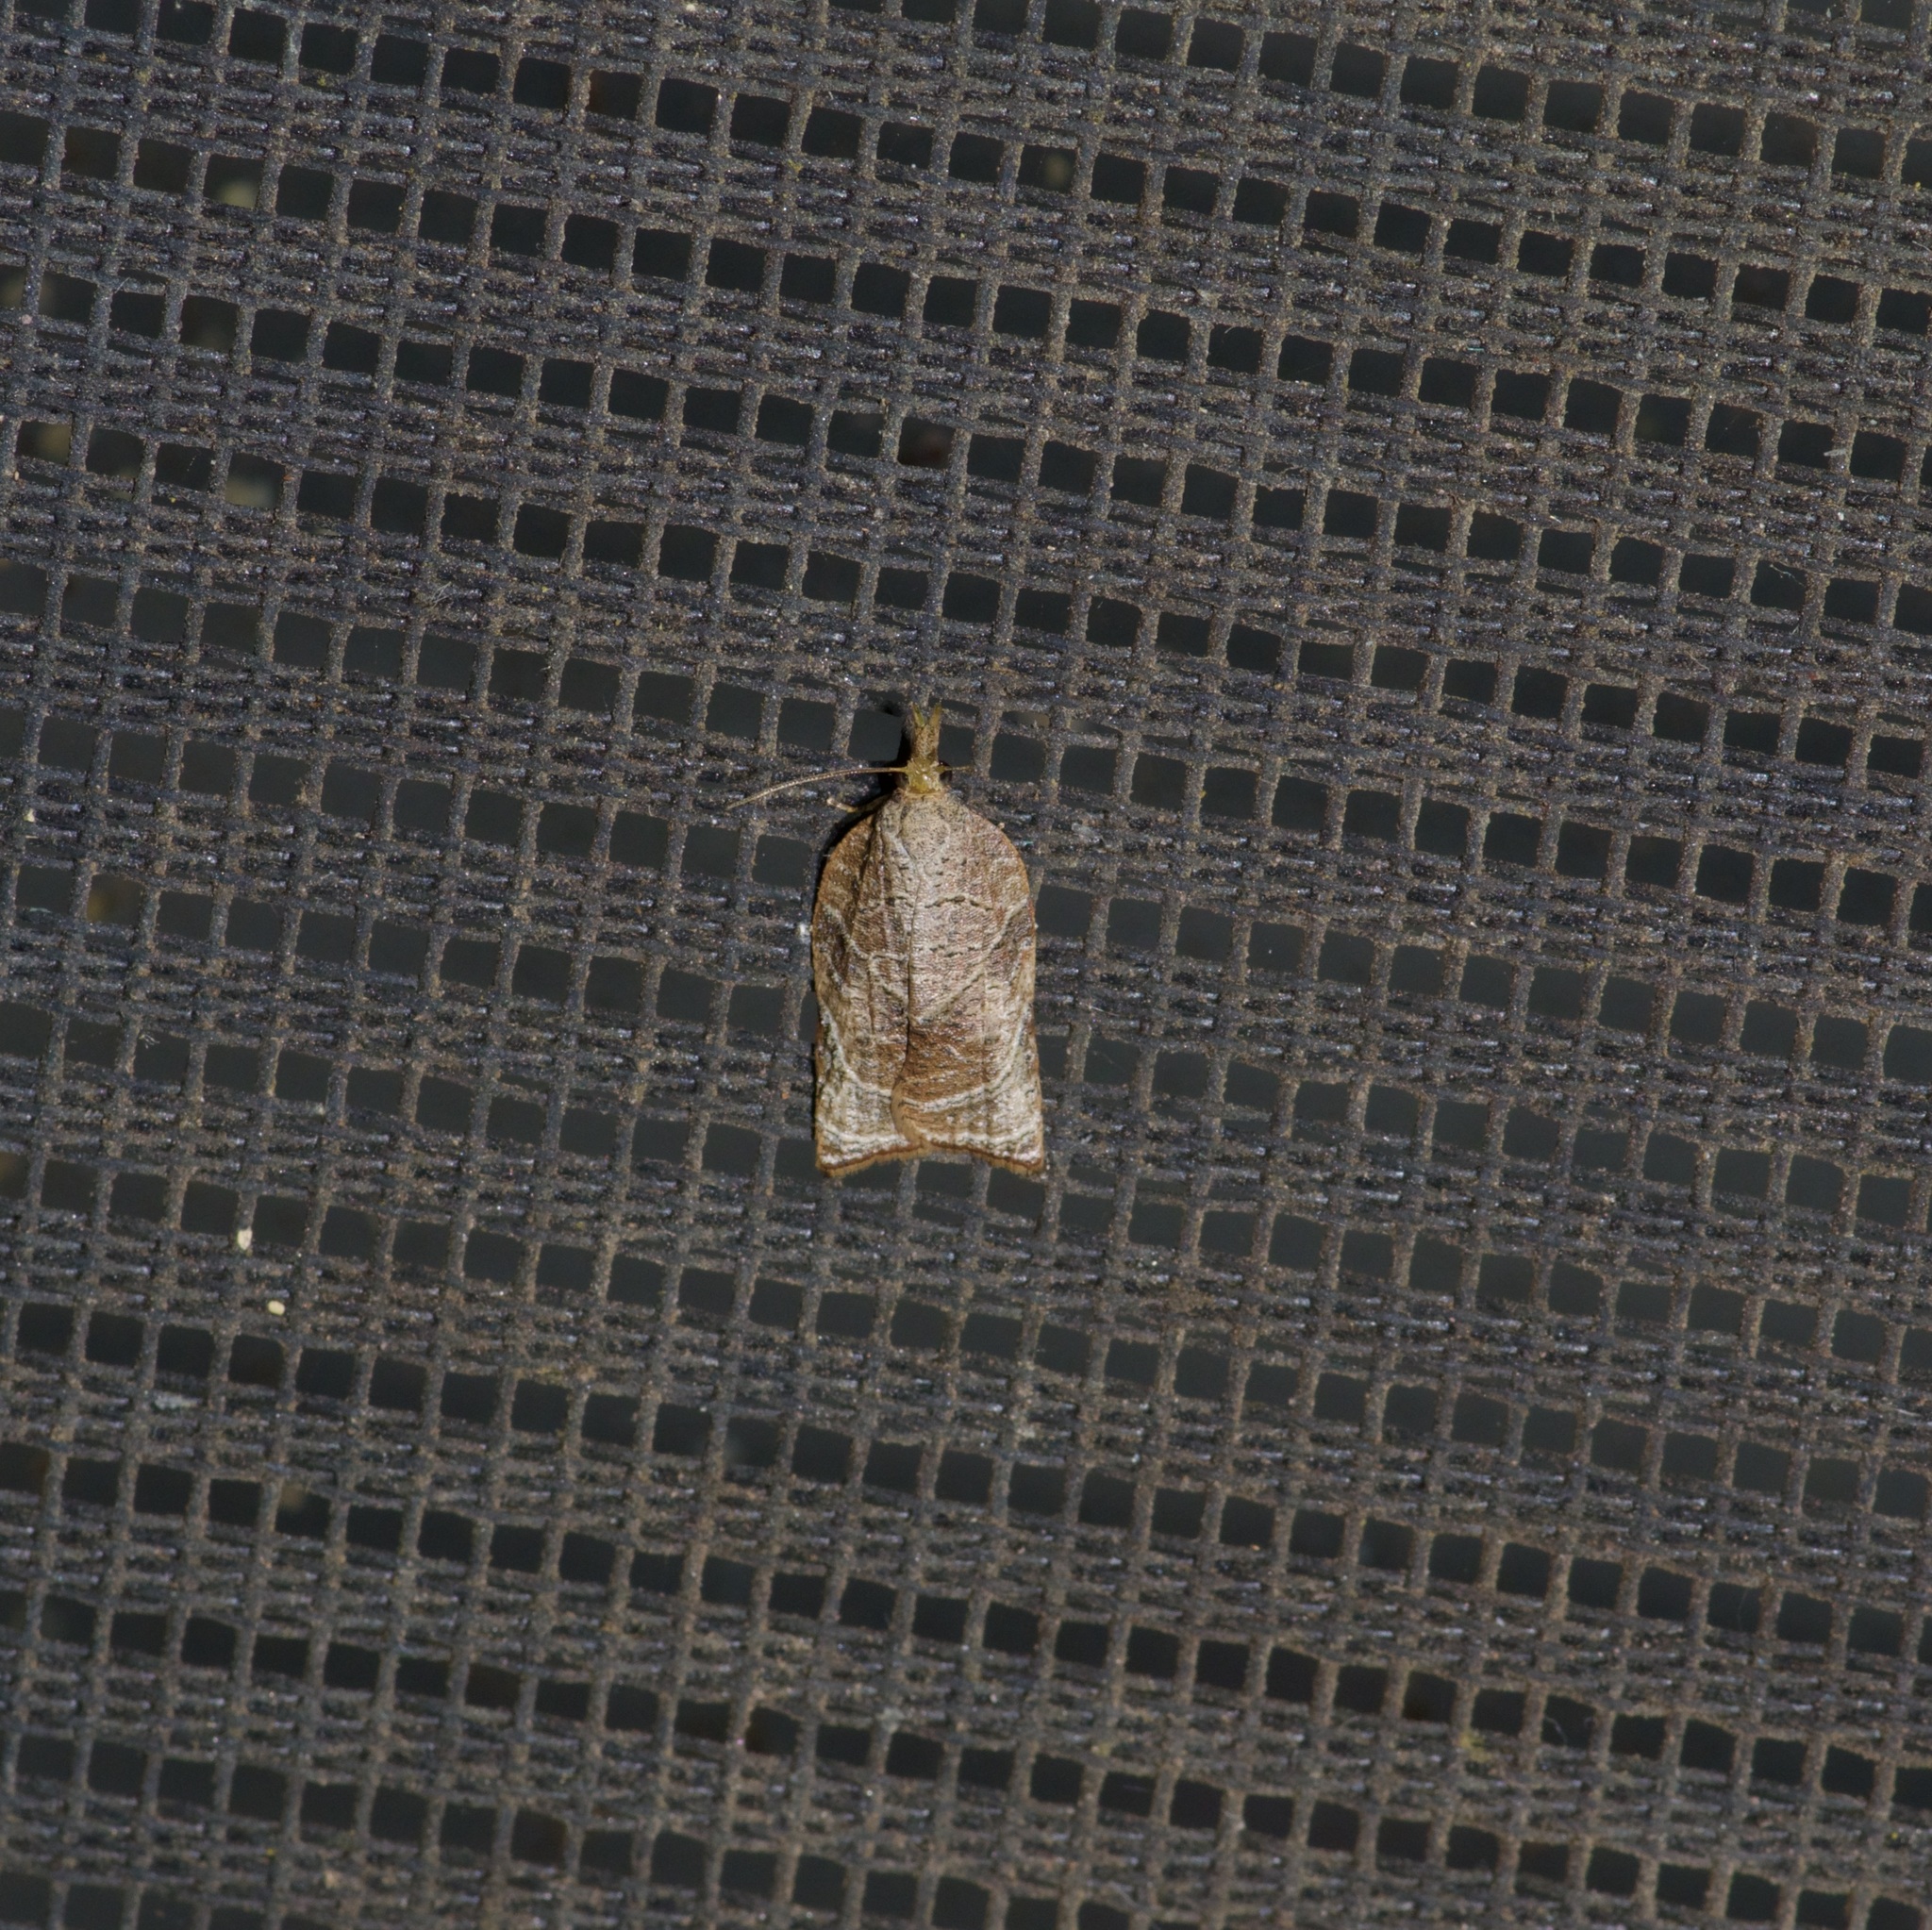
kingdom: Animalia
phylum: Arthropoda
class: Insecta
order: Lepidoptera
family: Tortricidae
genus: Platynota
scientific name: Platynota rostrana
